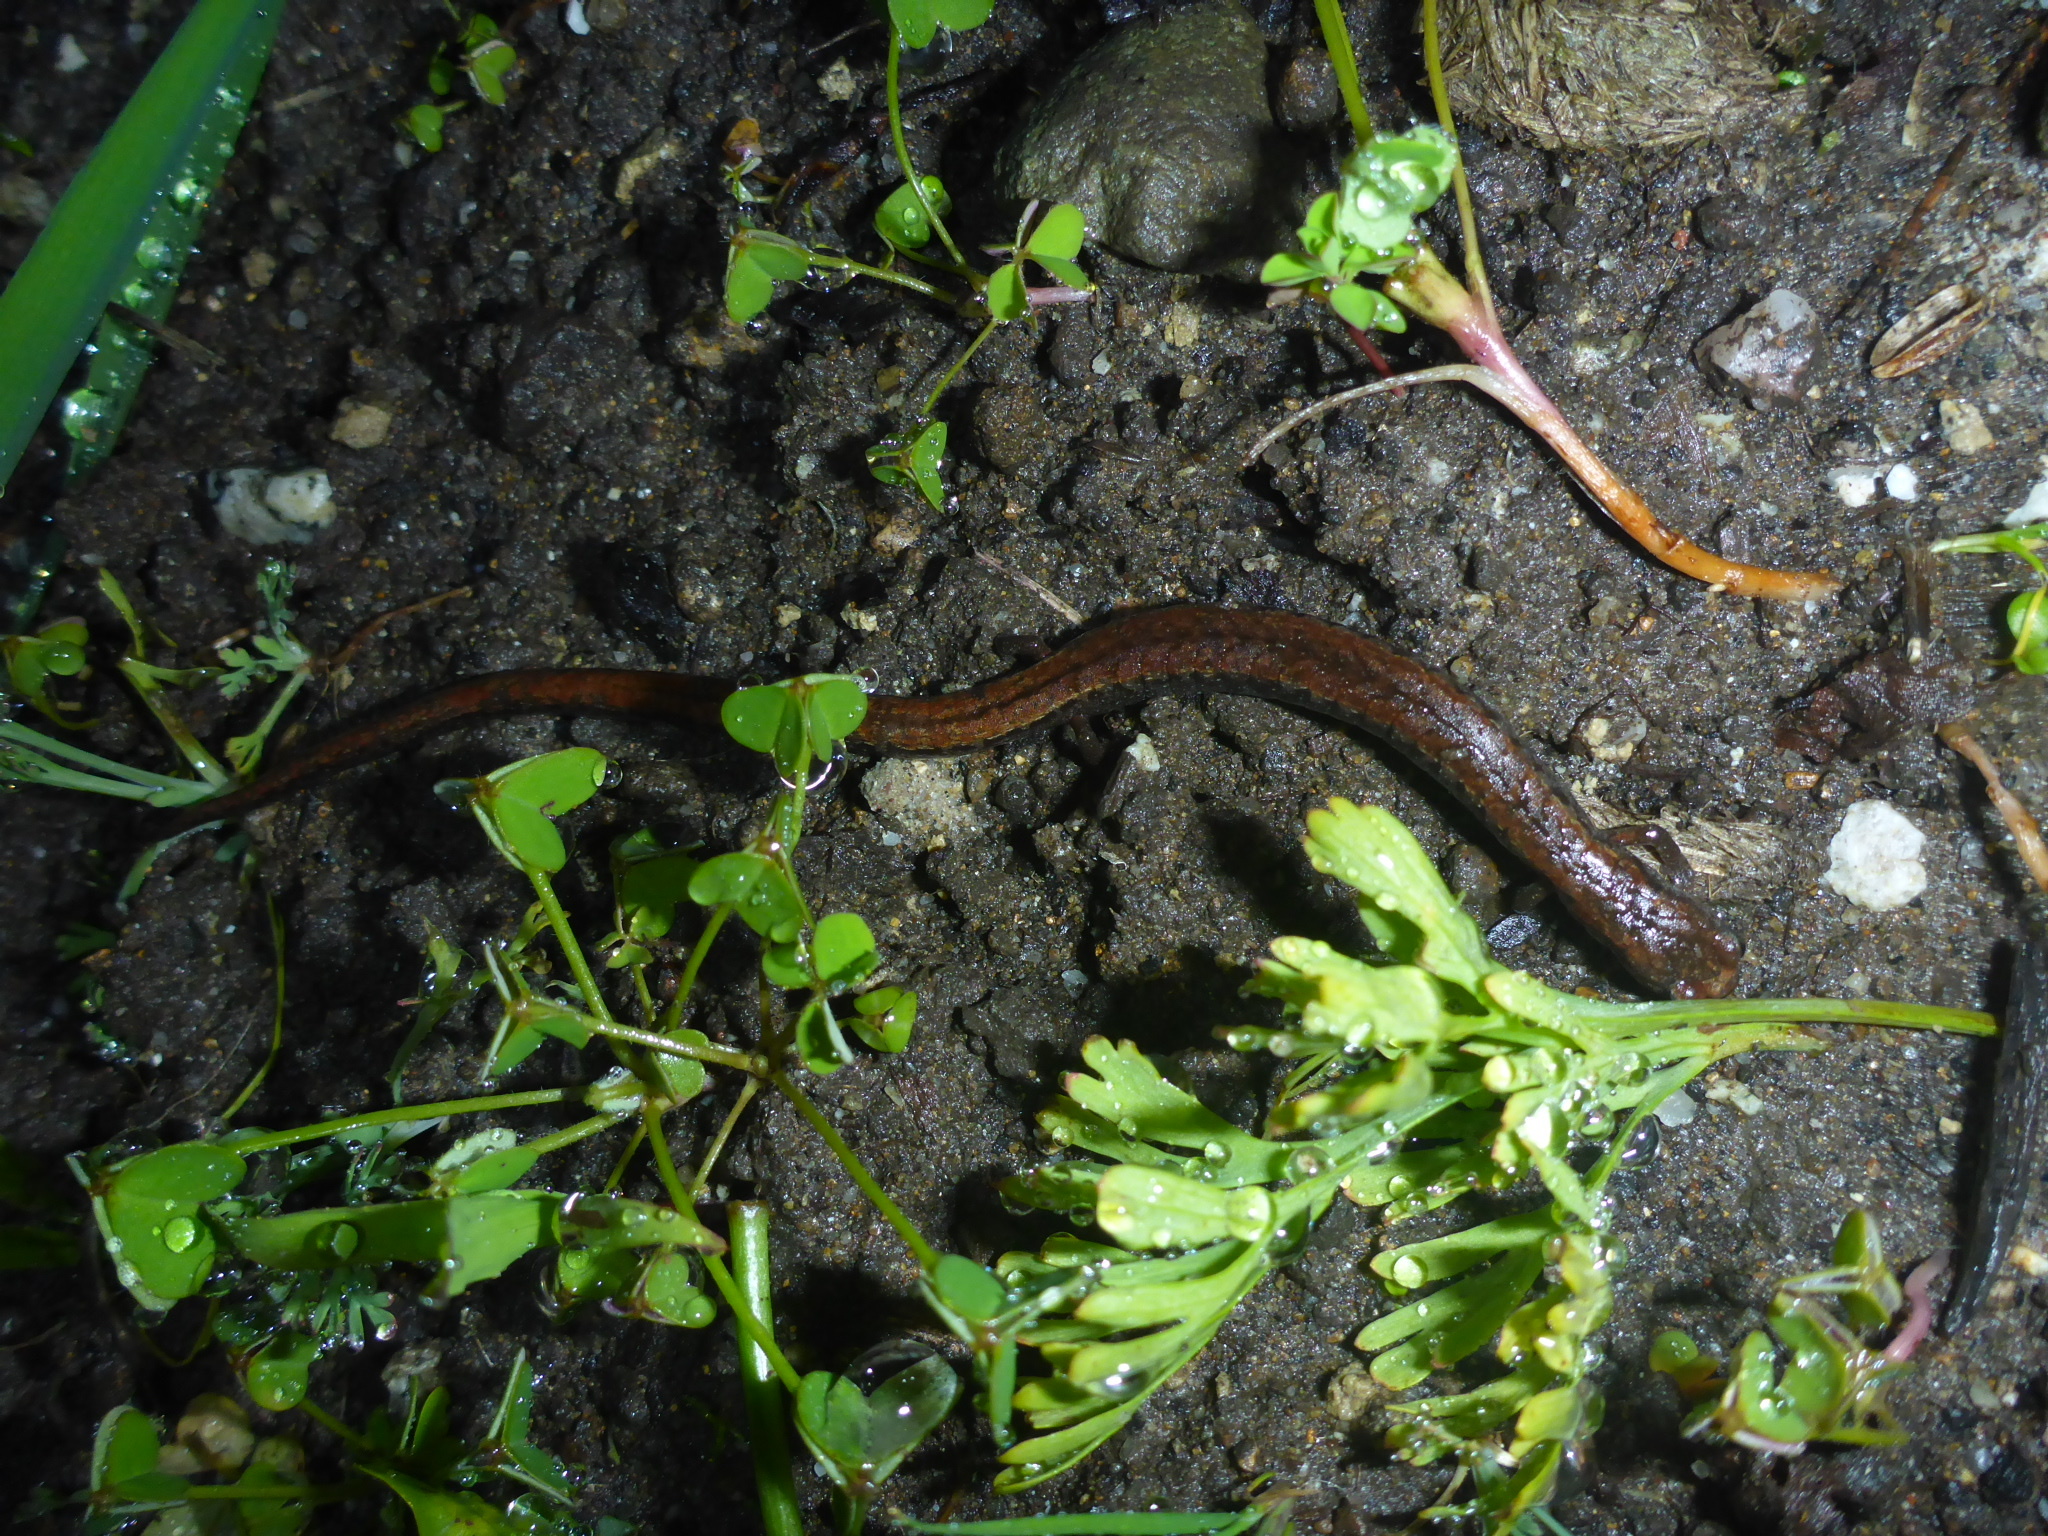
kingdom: Animalia
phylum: Chordata
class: Amphibia
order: Caudata
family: Plethodontidae
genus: Batrachoseps
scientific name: Batrachoseps attenuatus
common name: California slender salamander
